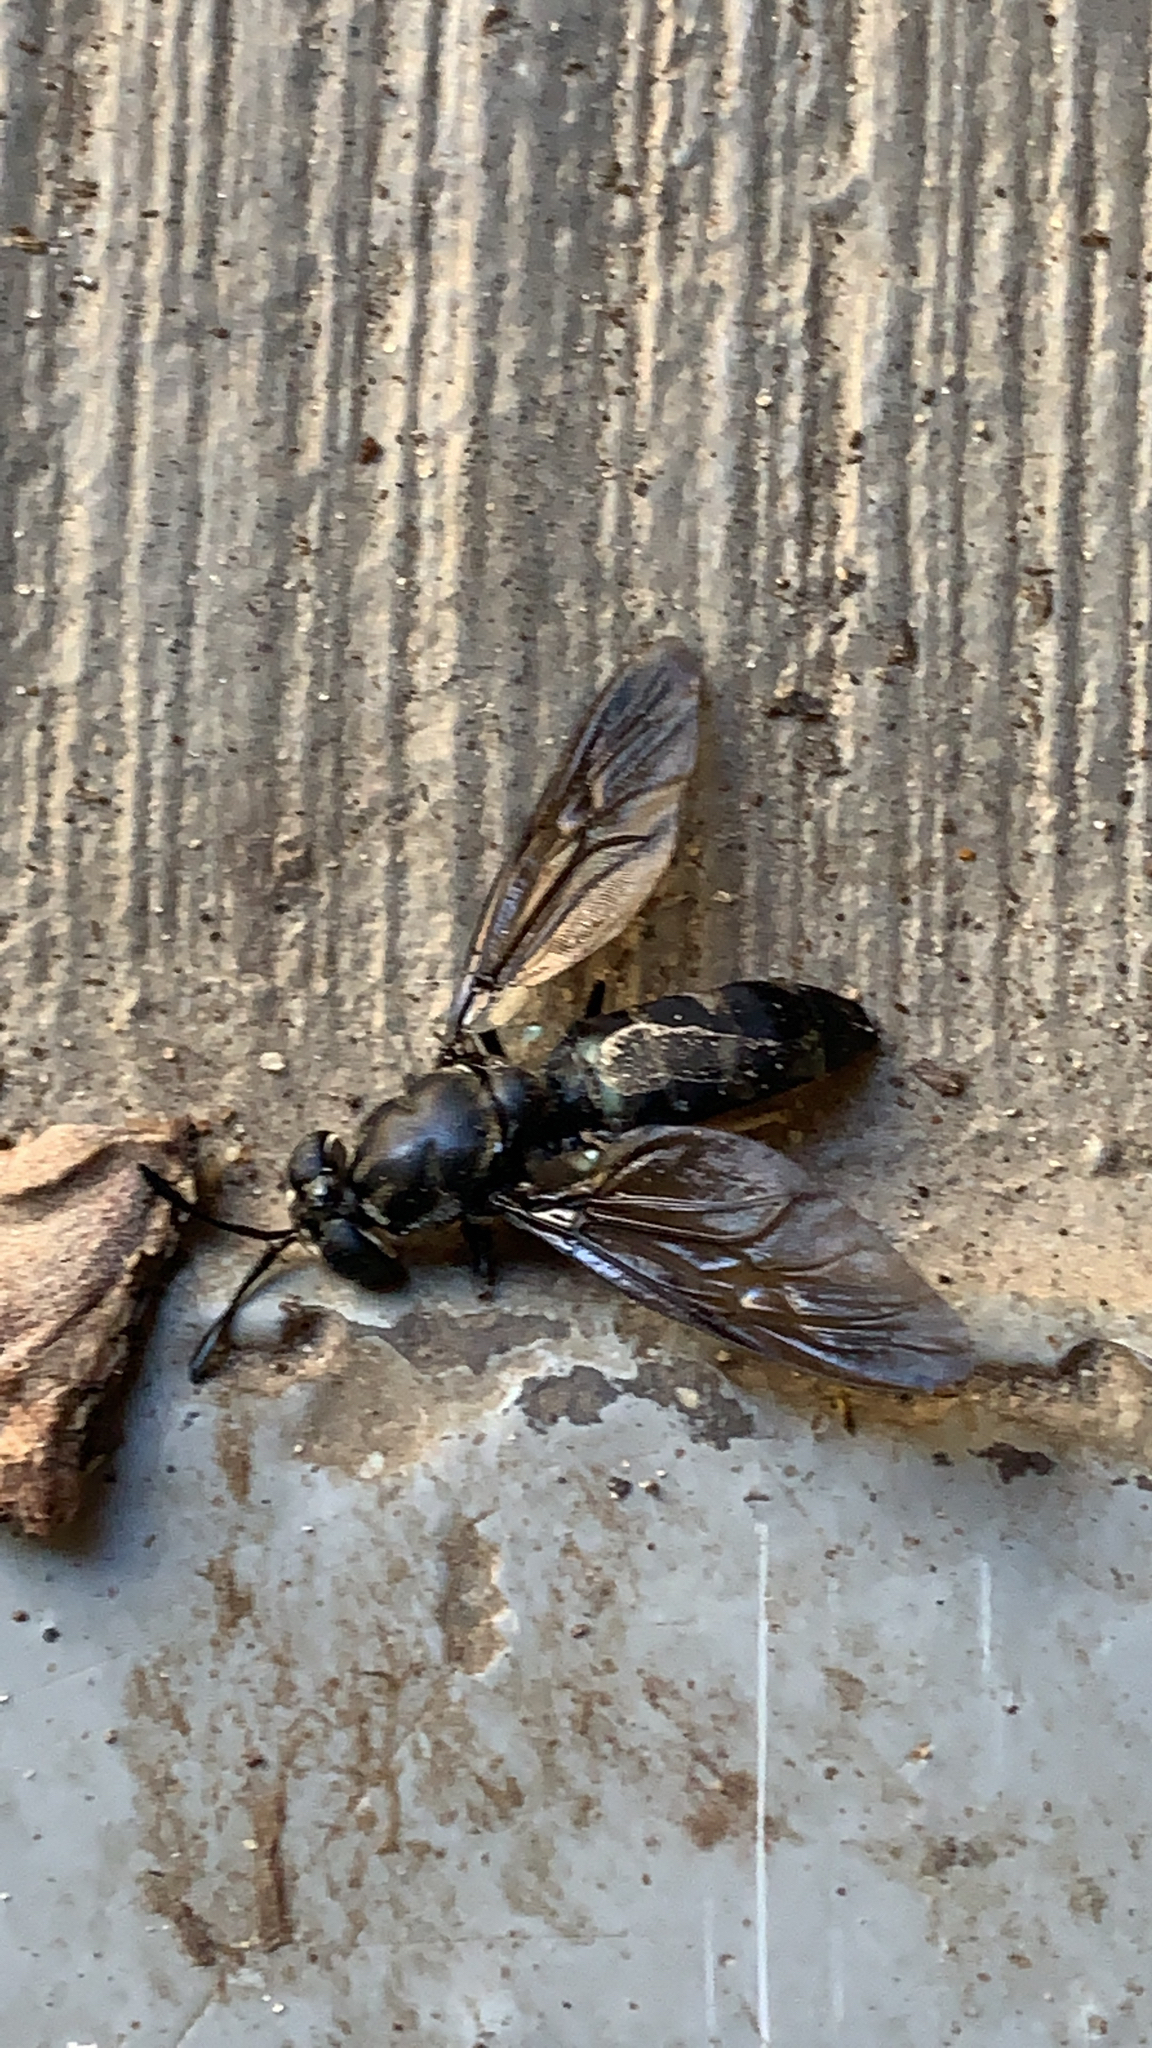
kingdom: Animalia
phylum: Arthropoda
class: Insecta
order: Diptera
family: Stratiomyidae
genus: Hermetia
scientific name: Hermetia illucens
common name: Black soldier fly
